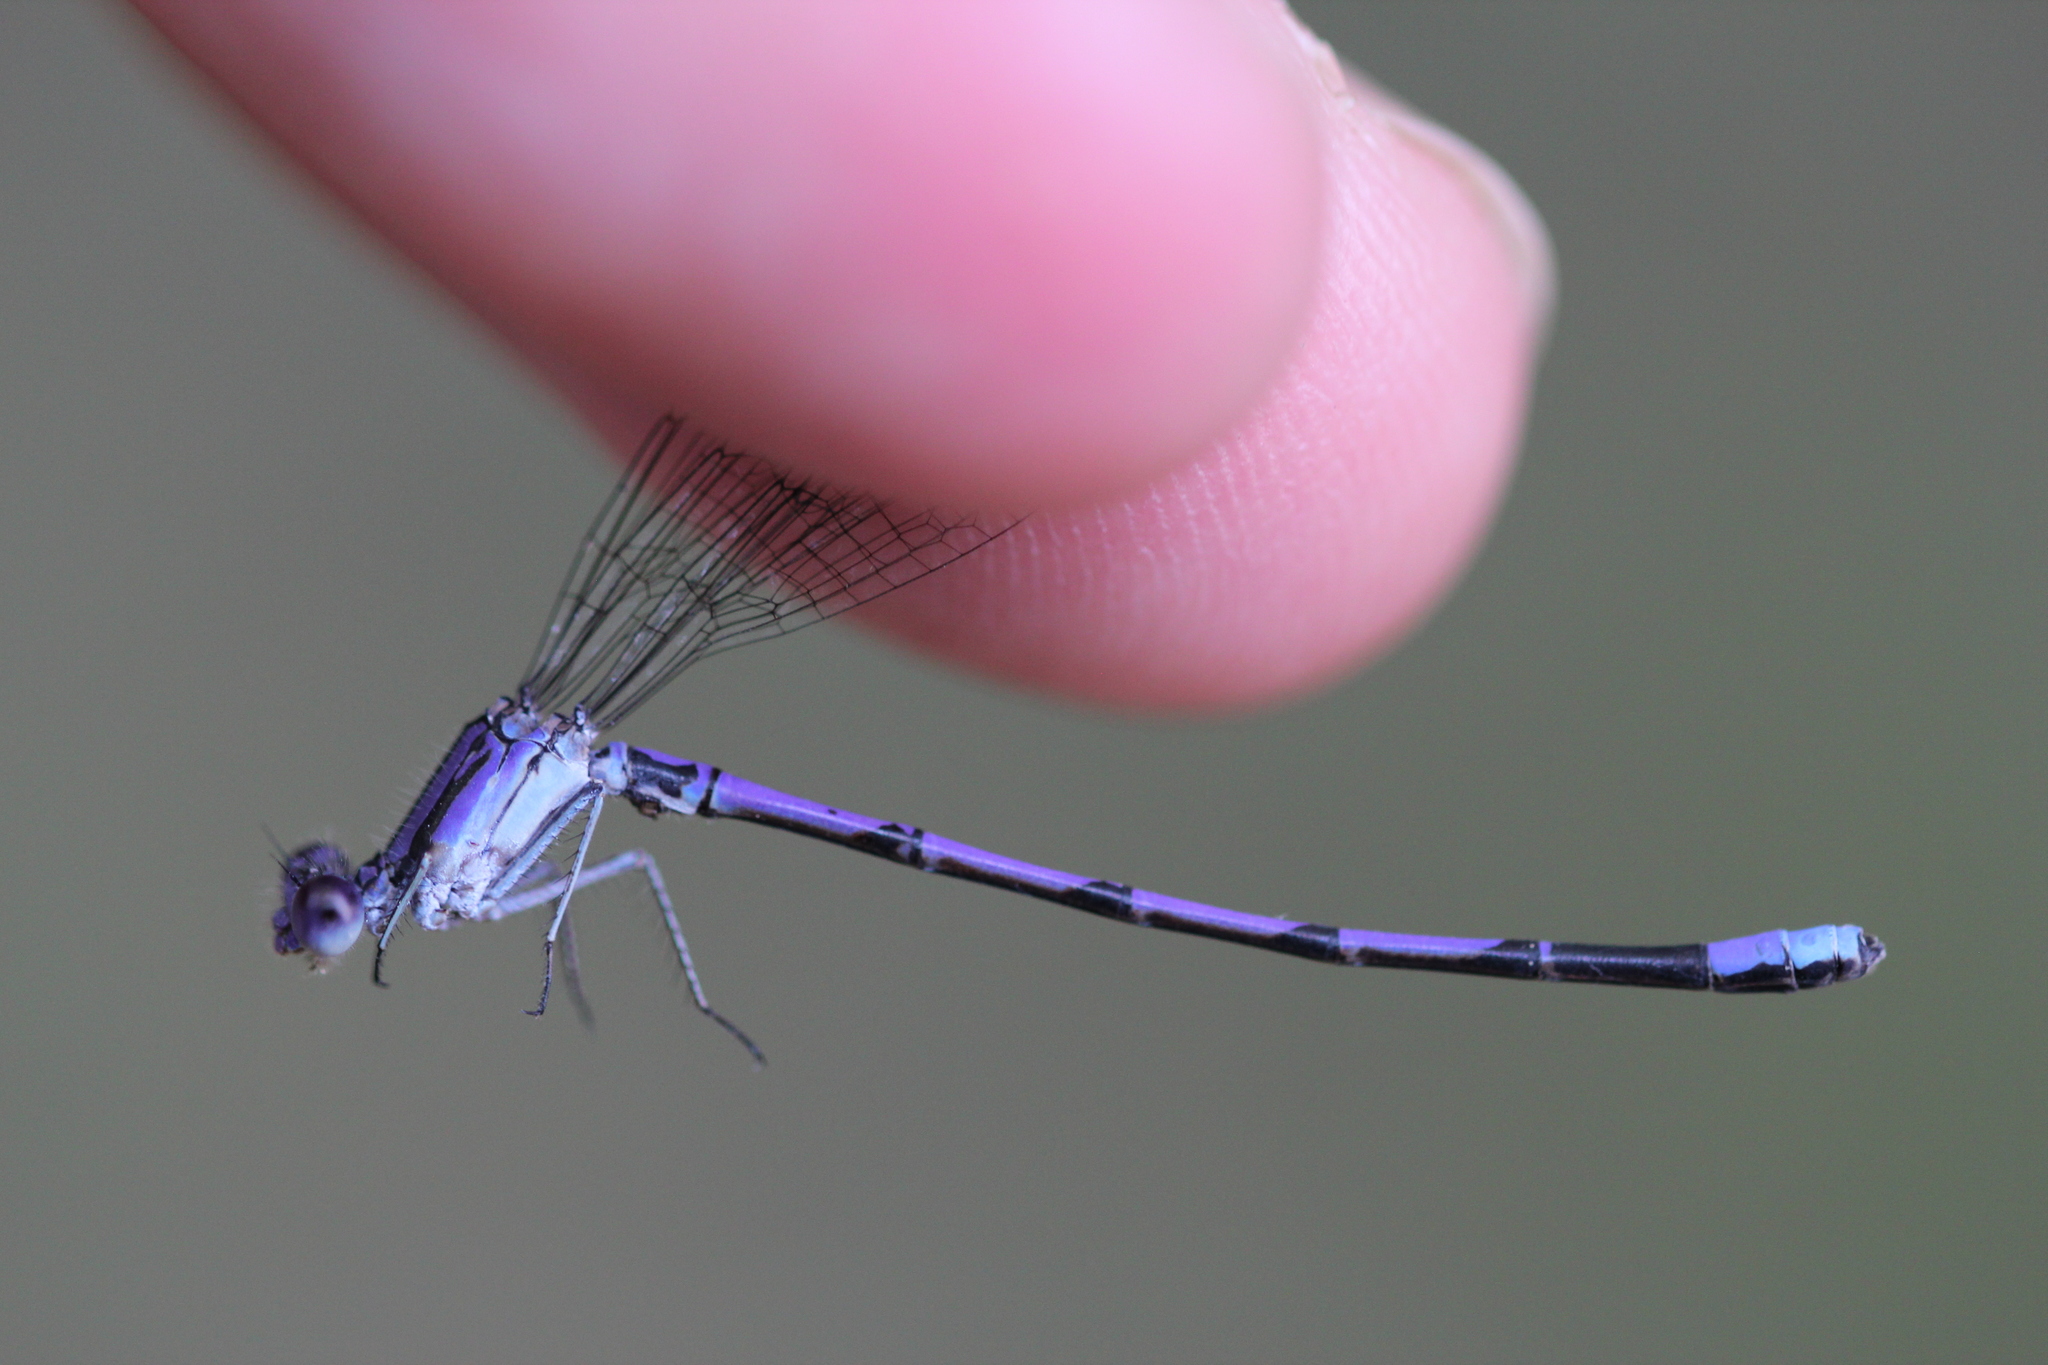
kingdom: Animalia
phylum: Arthropoda
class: Insecta
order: Odonata
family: Coenagrionidae
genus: Argia
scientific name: Argia fumipennis
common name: Variable dancer
